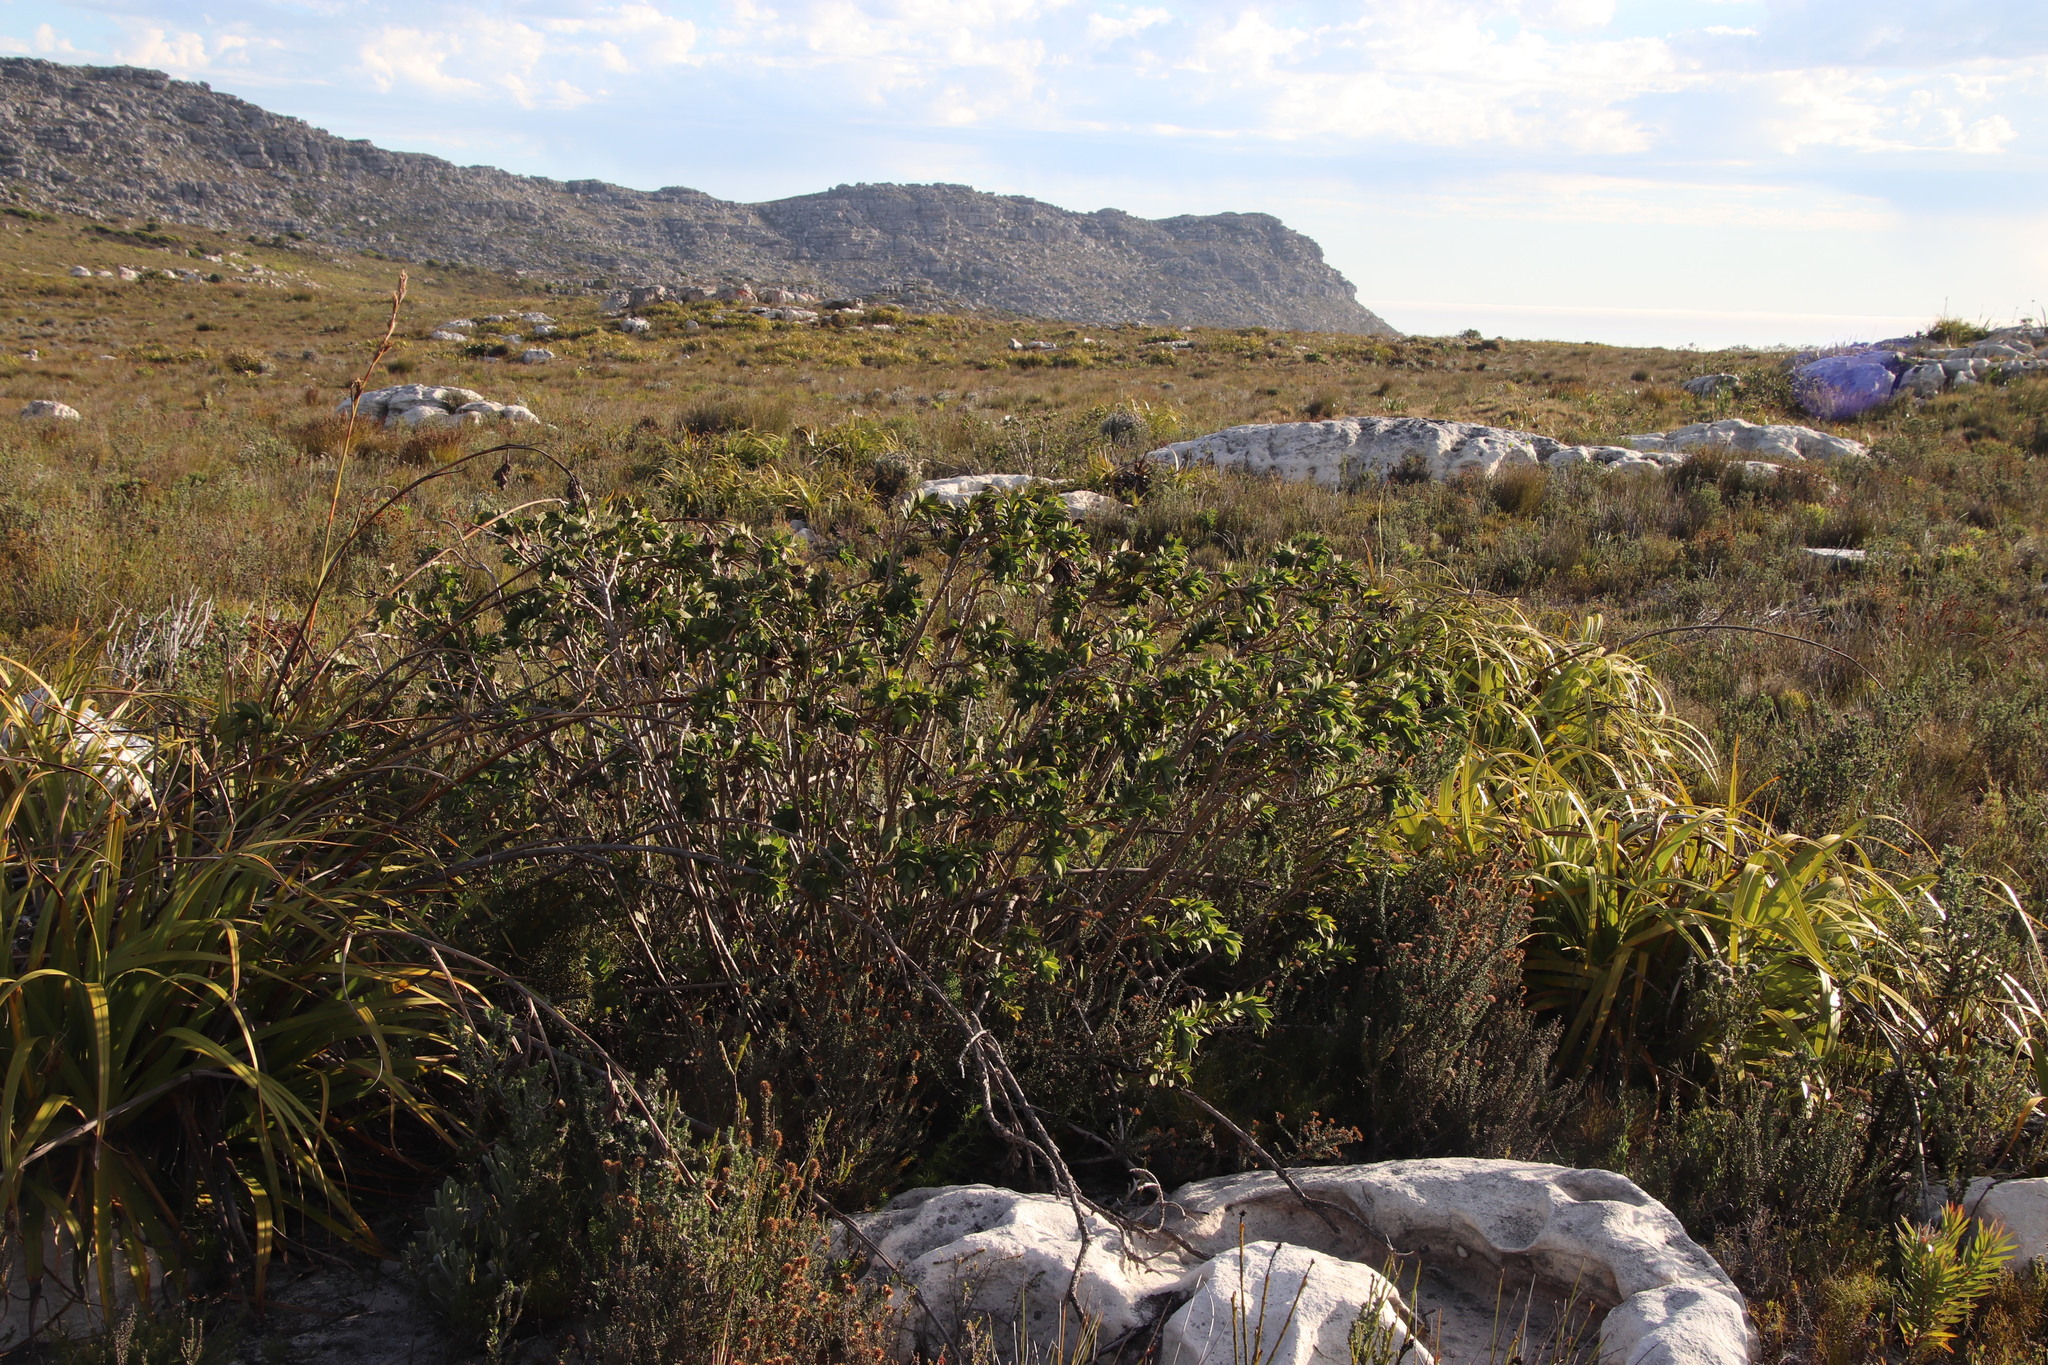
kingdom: Plantae
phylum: Tracheophyta
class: Magnoliopsida
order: Fabales
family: Fabaceae
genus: Liparia
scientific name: Liparia splendens
